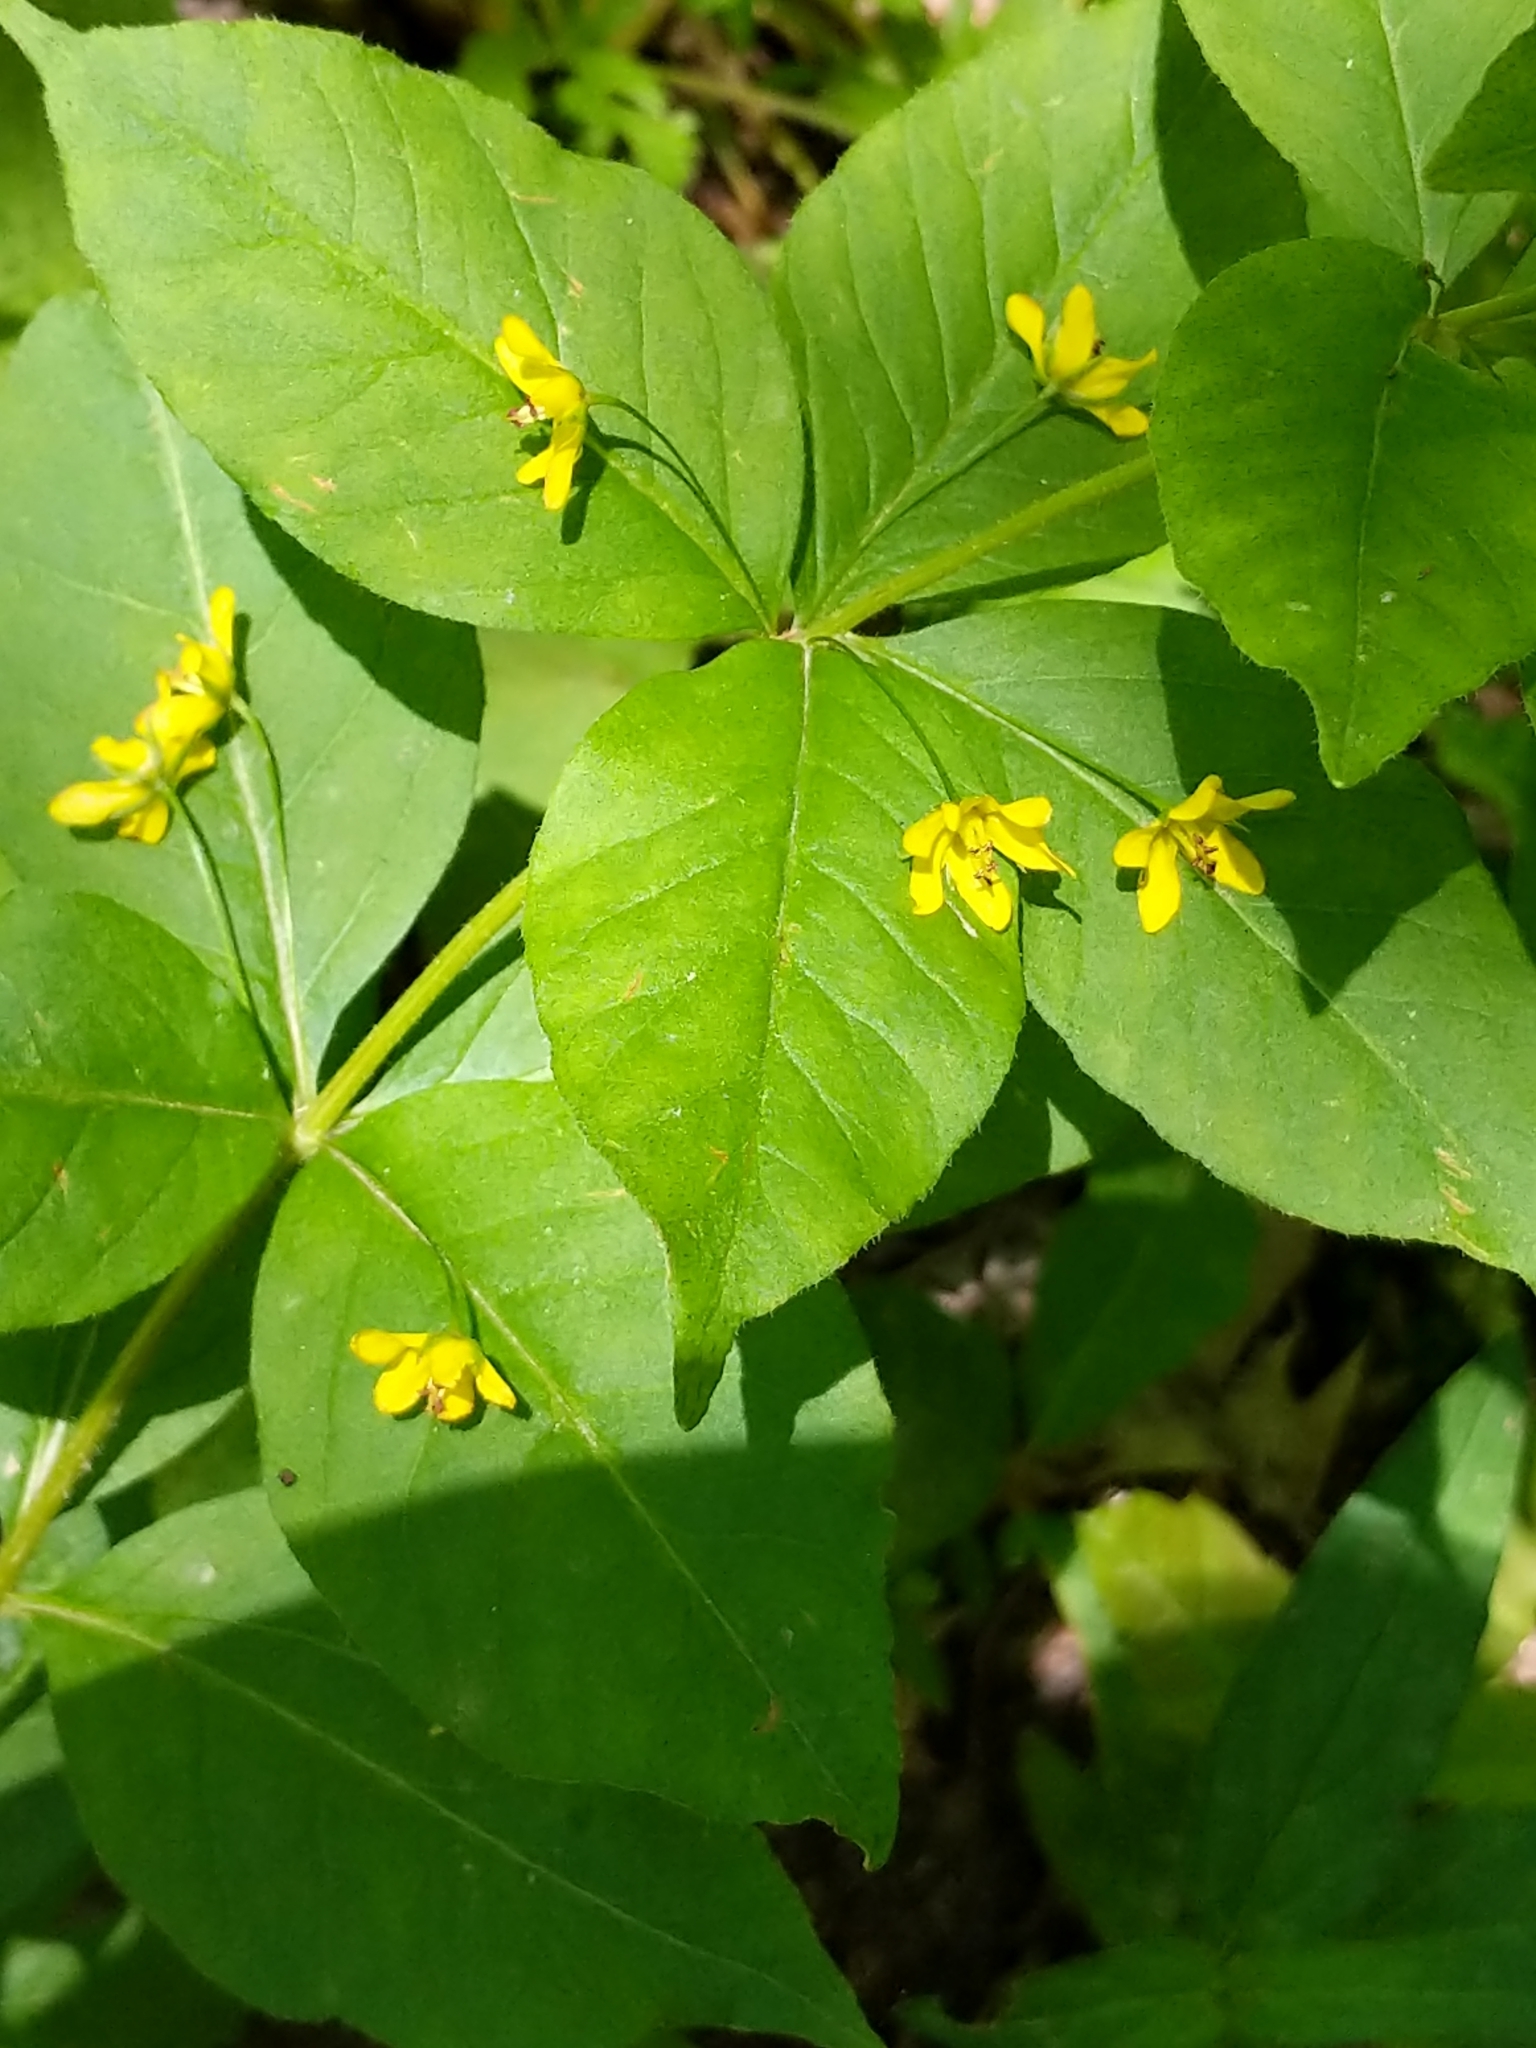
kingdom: Plantae
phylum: Tracheophyta
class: Magnoliopsida
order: Ericales
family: Primulaceae
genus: Lysimachia
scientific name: Lysimachia quadrifolia
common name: Whorled loosestrife
